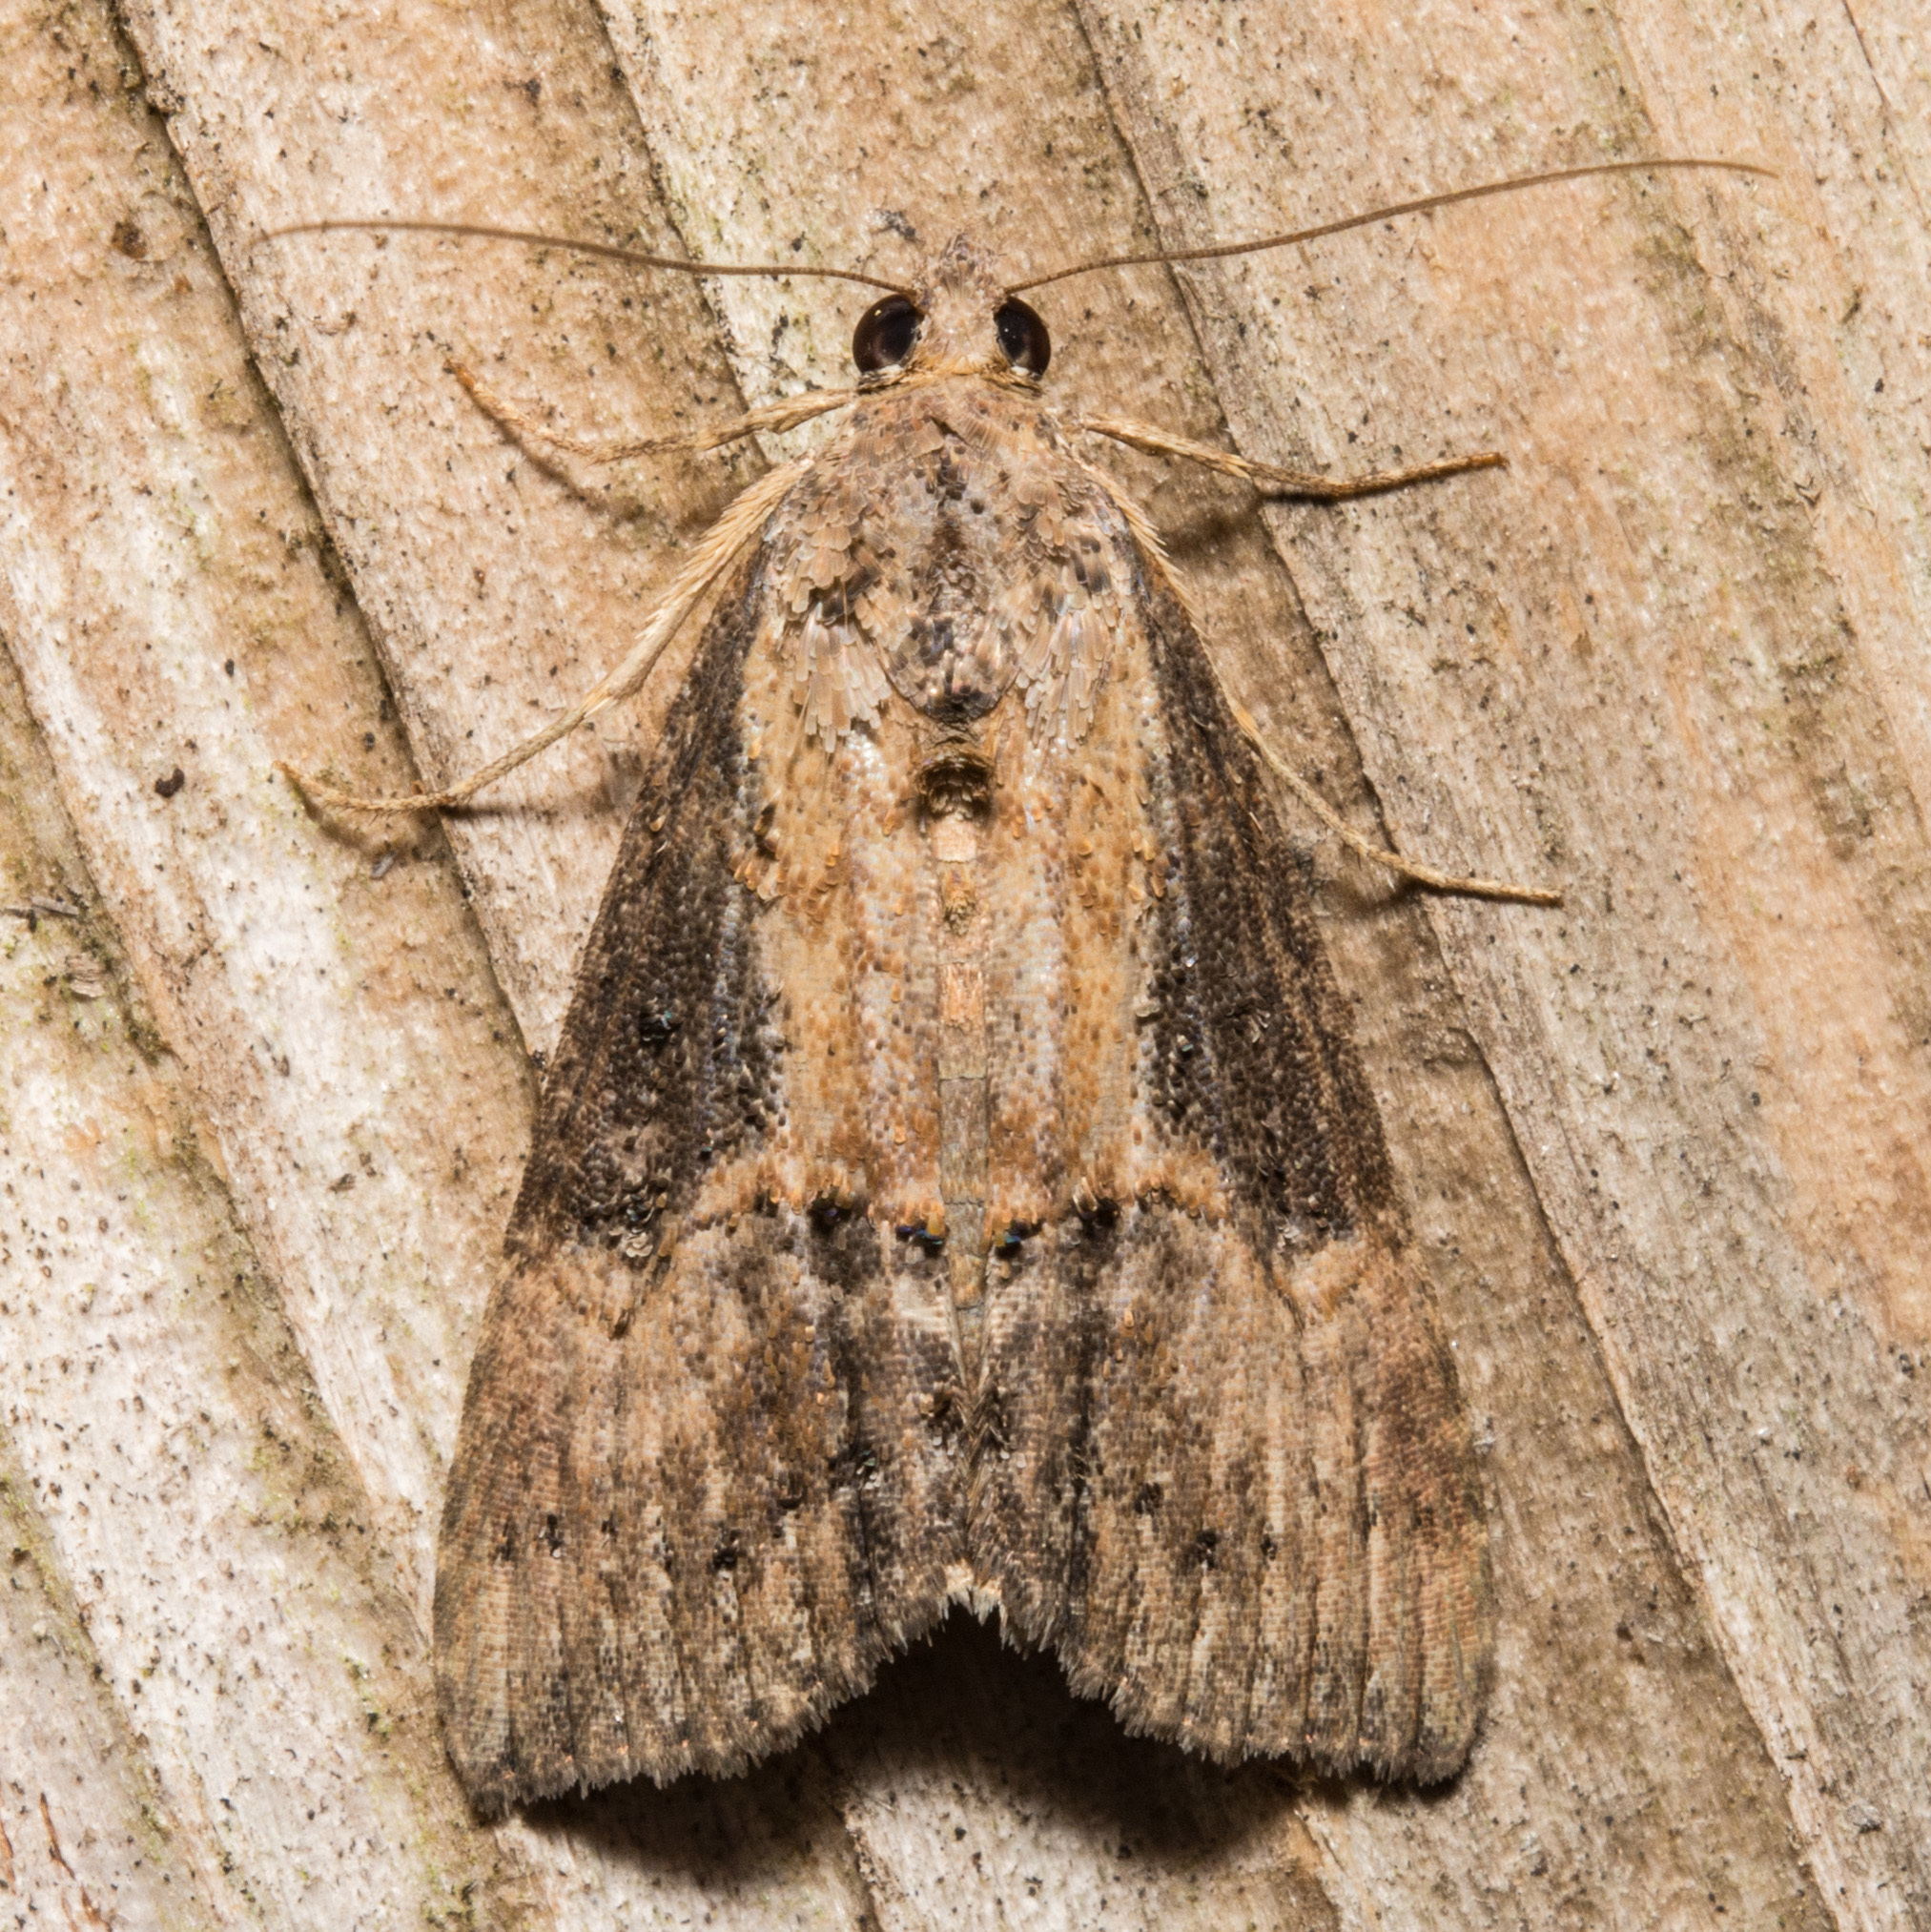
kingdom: Animalia
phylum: Arthropoda
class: Insecta
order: Lepidoptera
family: Erebidae
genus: Hypena
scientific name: Hypena scabra
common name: Green cloverworm
